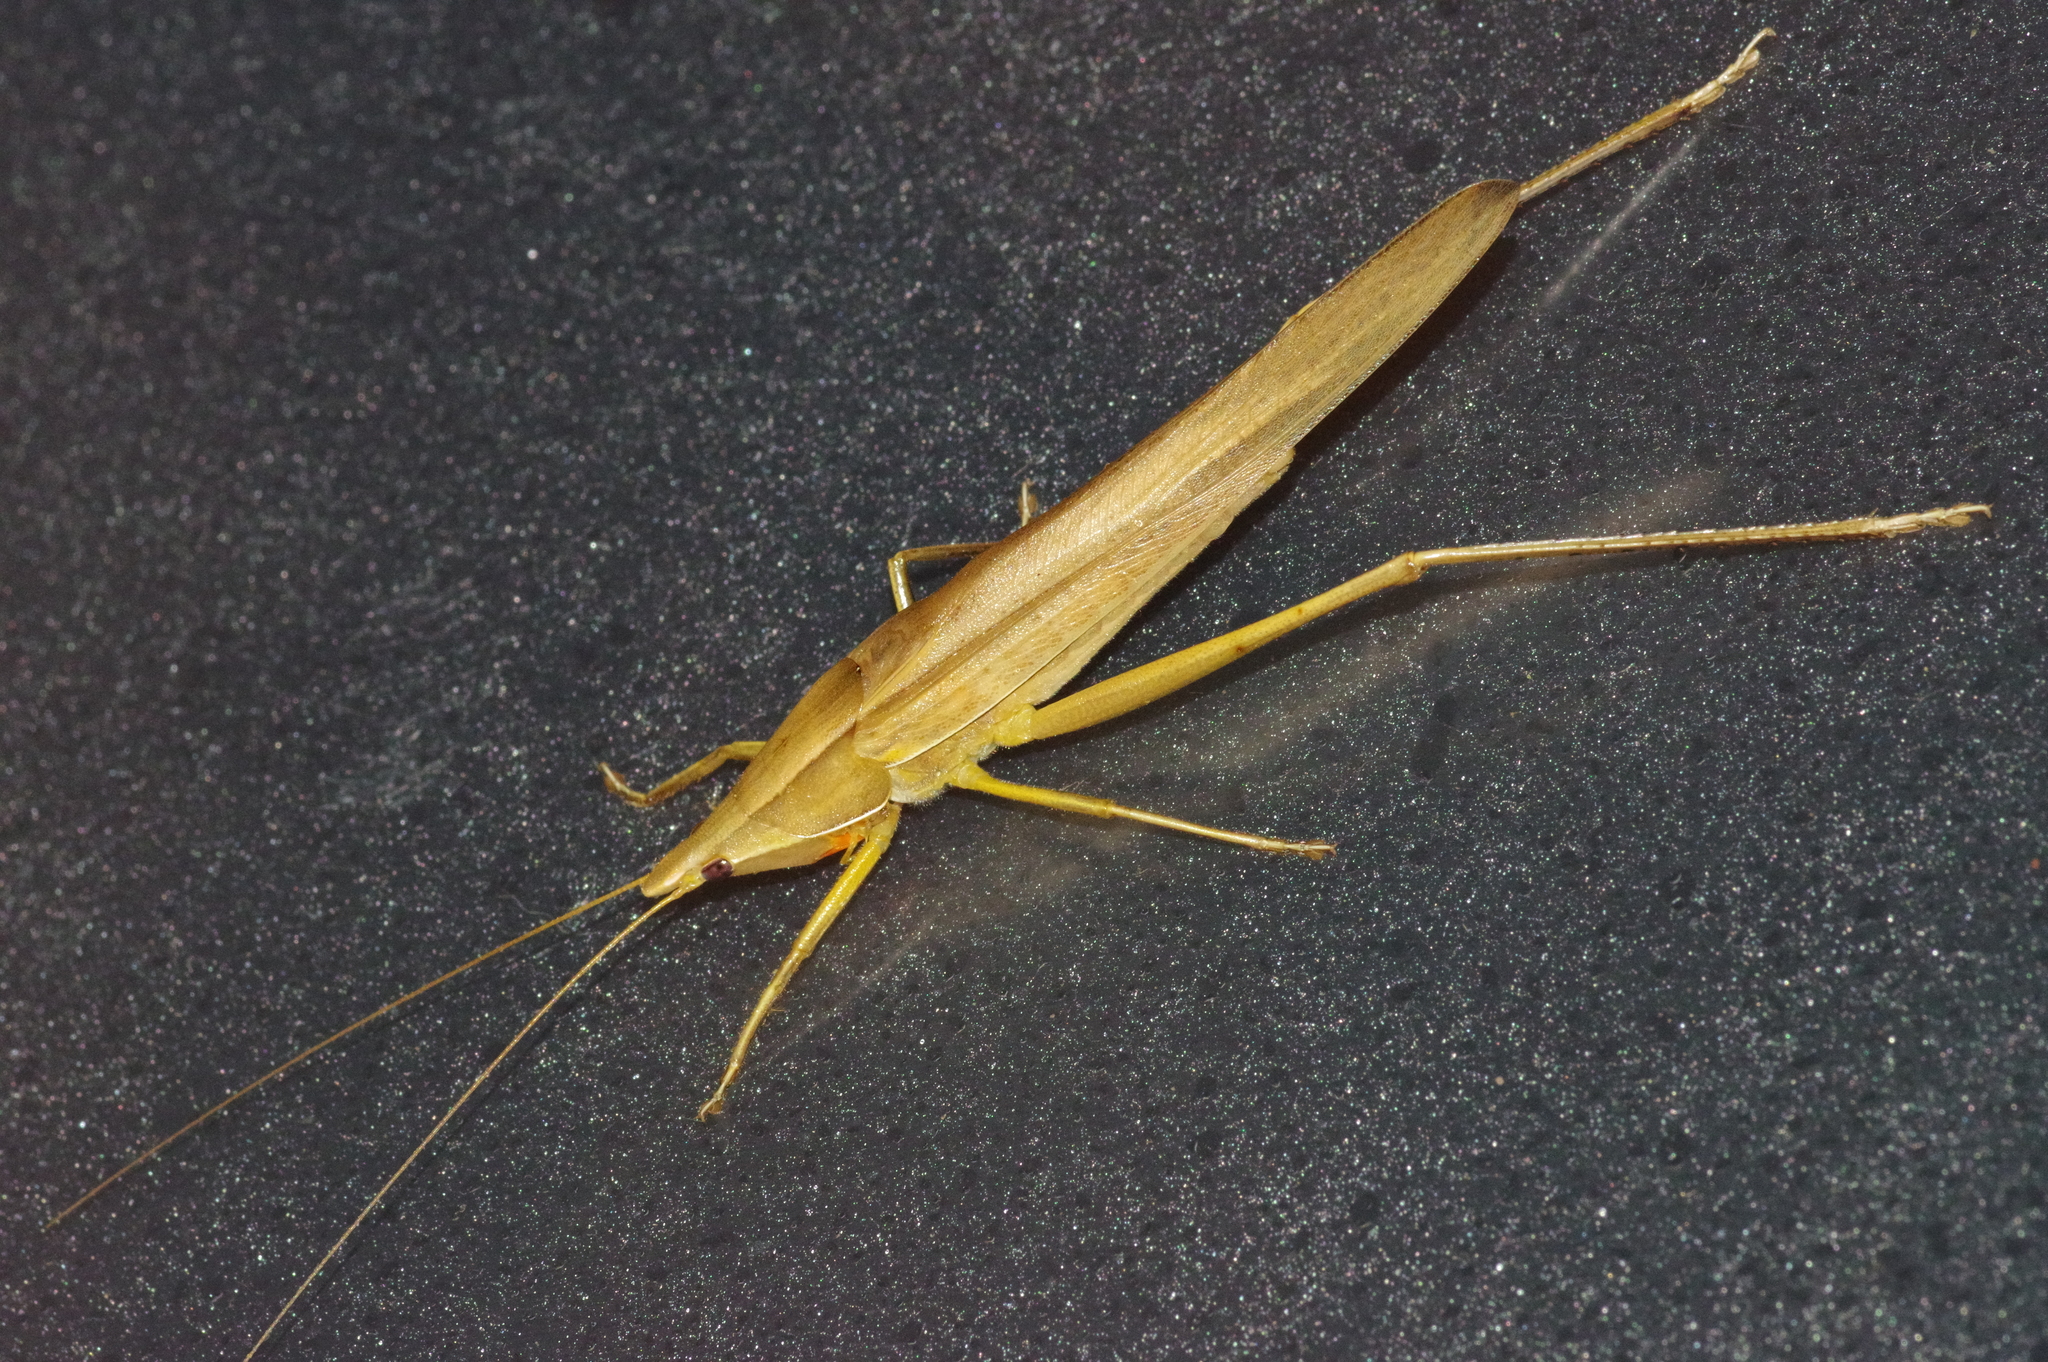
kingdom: Animalia
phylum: Arthropoda
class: Insecta
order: Orthoptera
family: Tettigoniidae
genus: Euconocephalus
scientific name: Euconocephalus varius
